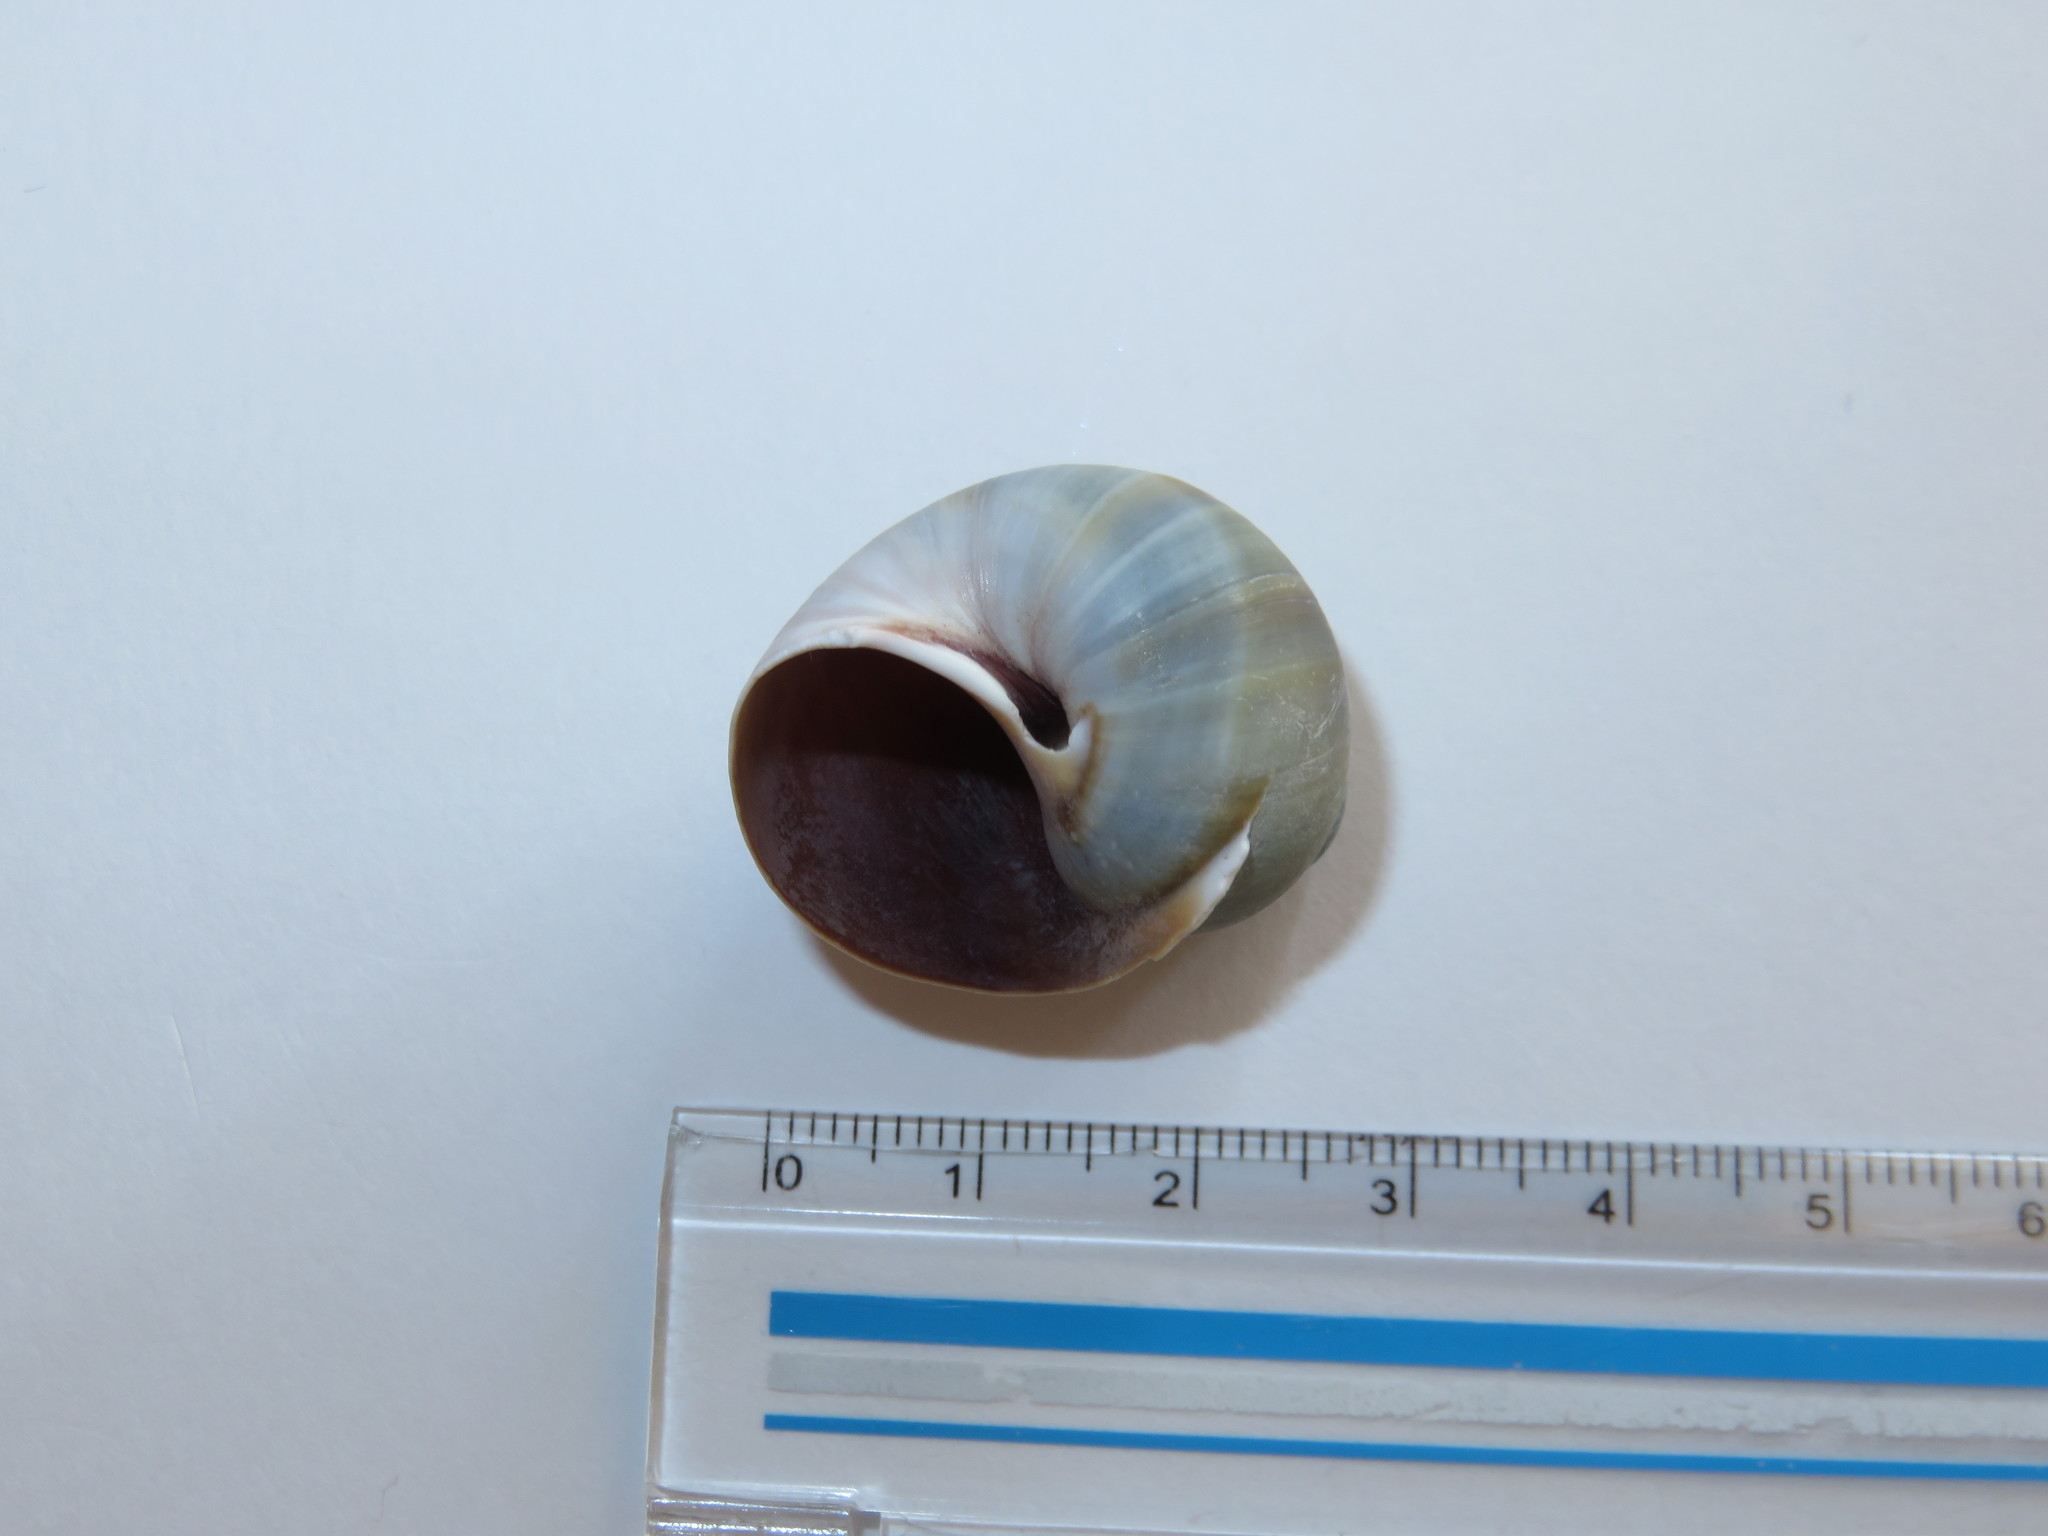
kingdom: Animalia
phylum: Mollusca
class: Gastropoda
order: Littorinimorpha
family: Naticidae
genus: Laguncula
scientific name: Laguncula pulchella
